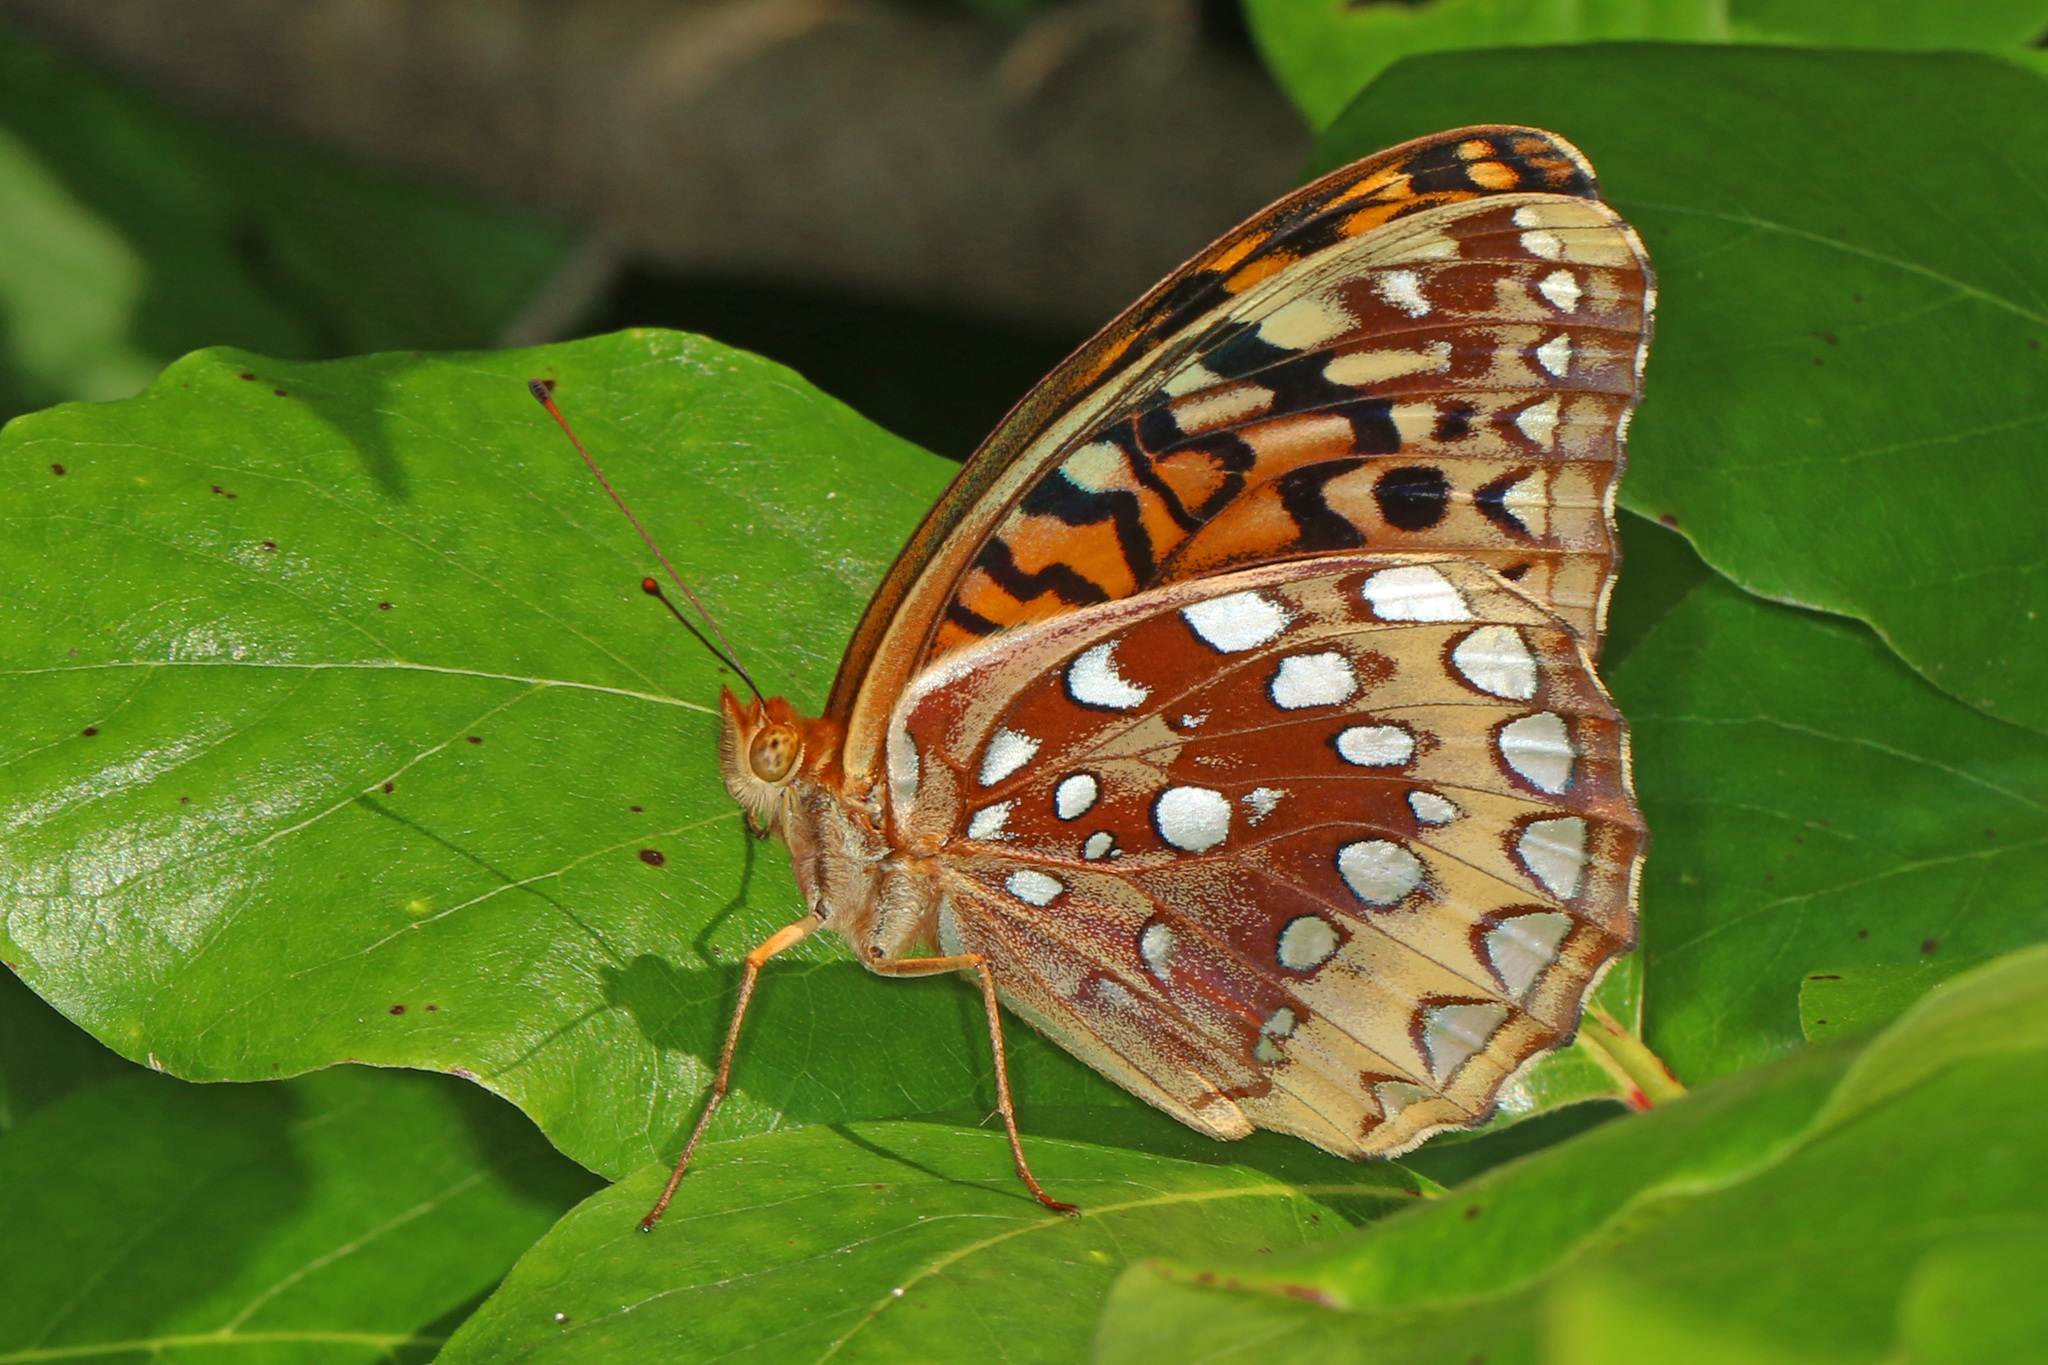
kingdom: Animalia
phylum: Arthropoda
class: Insecta
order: Lepidoptera
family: Nymphalidae
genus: Speyeria
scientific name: Speyeria cybele
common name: Great spangled fritillary
